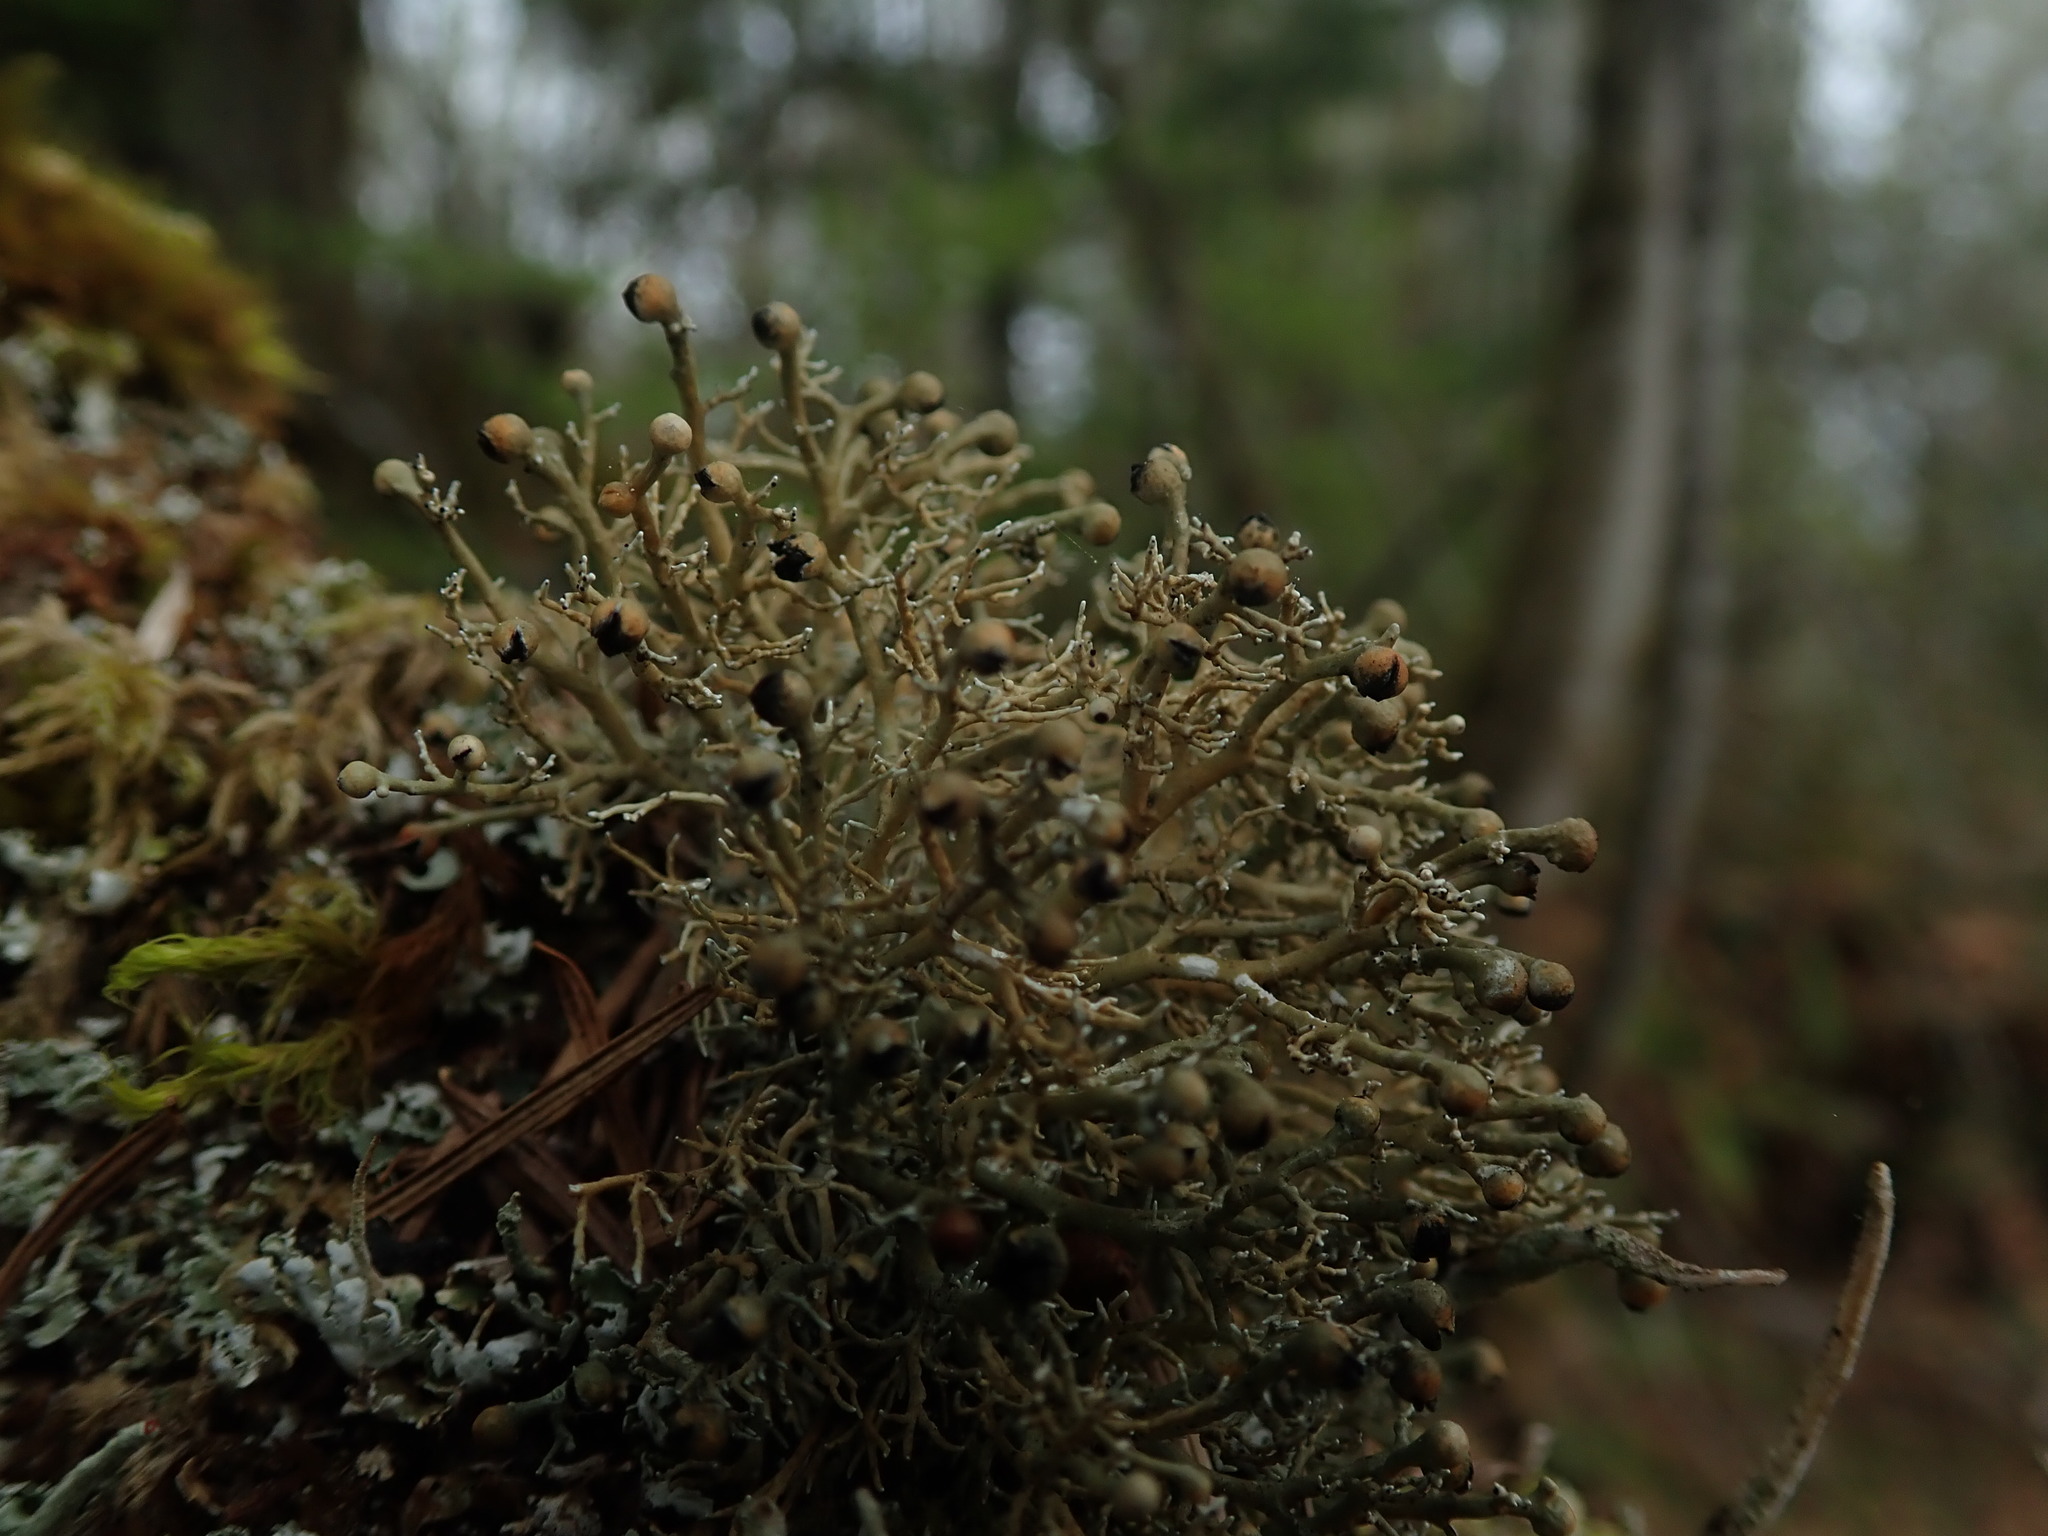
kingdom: Fungi
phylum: Ascomycota
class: Lecanoromycetes
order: Lecanorales
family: Sphaerophoraceae
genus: Sphaerophorus
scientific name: Sphaerophorus globosus
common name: Globe ball lichen
